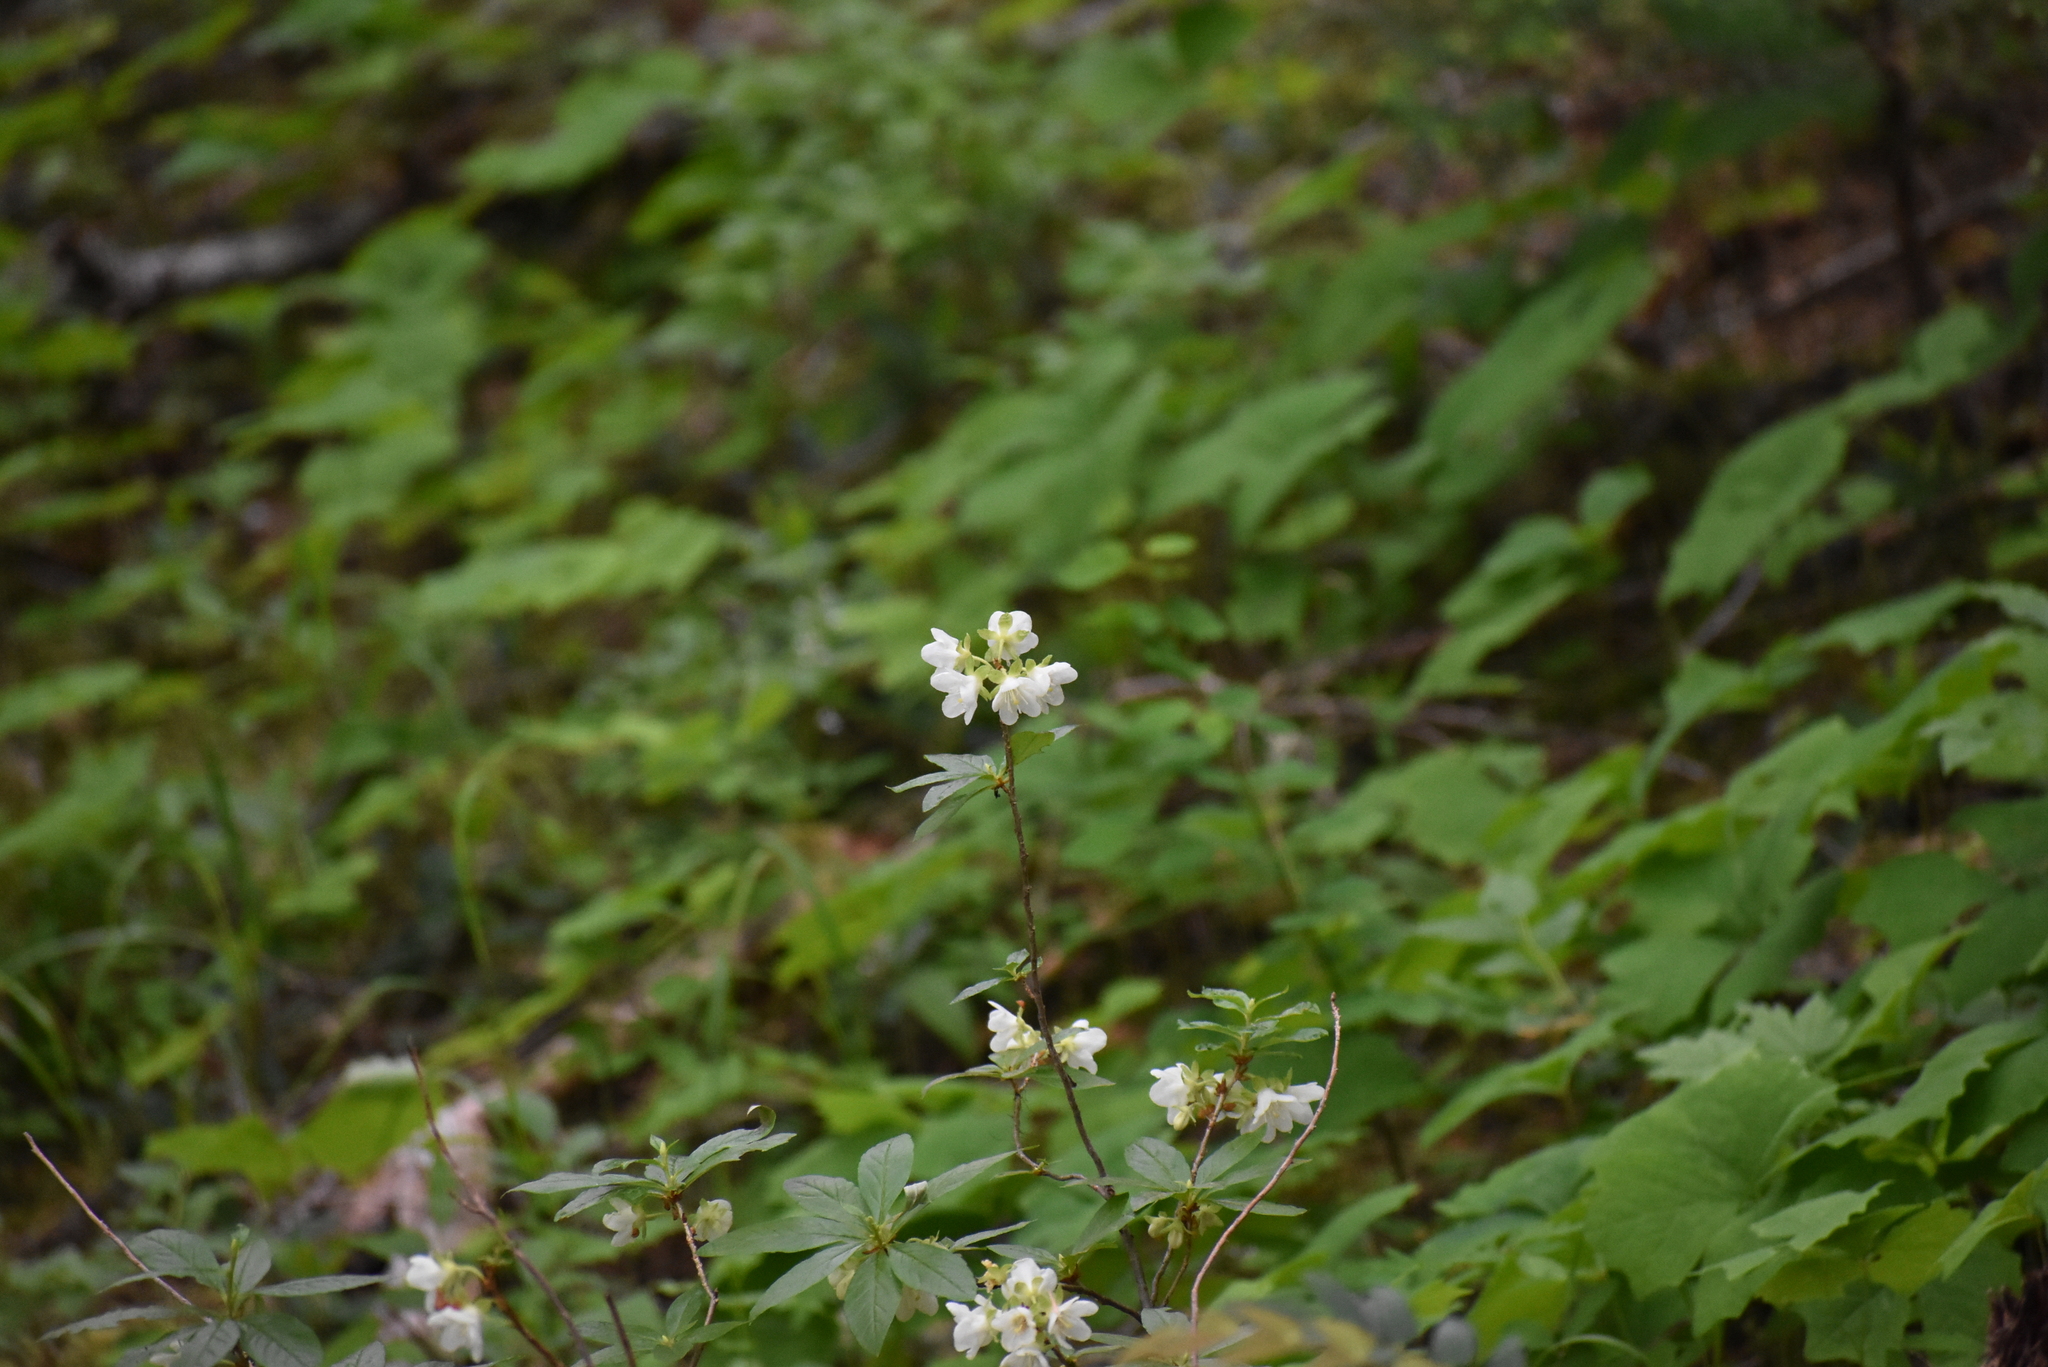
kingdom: Plantae
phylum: Tracheophyta
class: Magnoliopsida
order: Ericales
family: Ericaceae
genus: Rhododendron
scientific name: Rhododendron albiflorum
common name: White rhododendron
